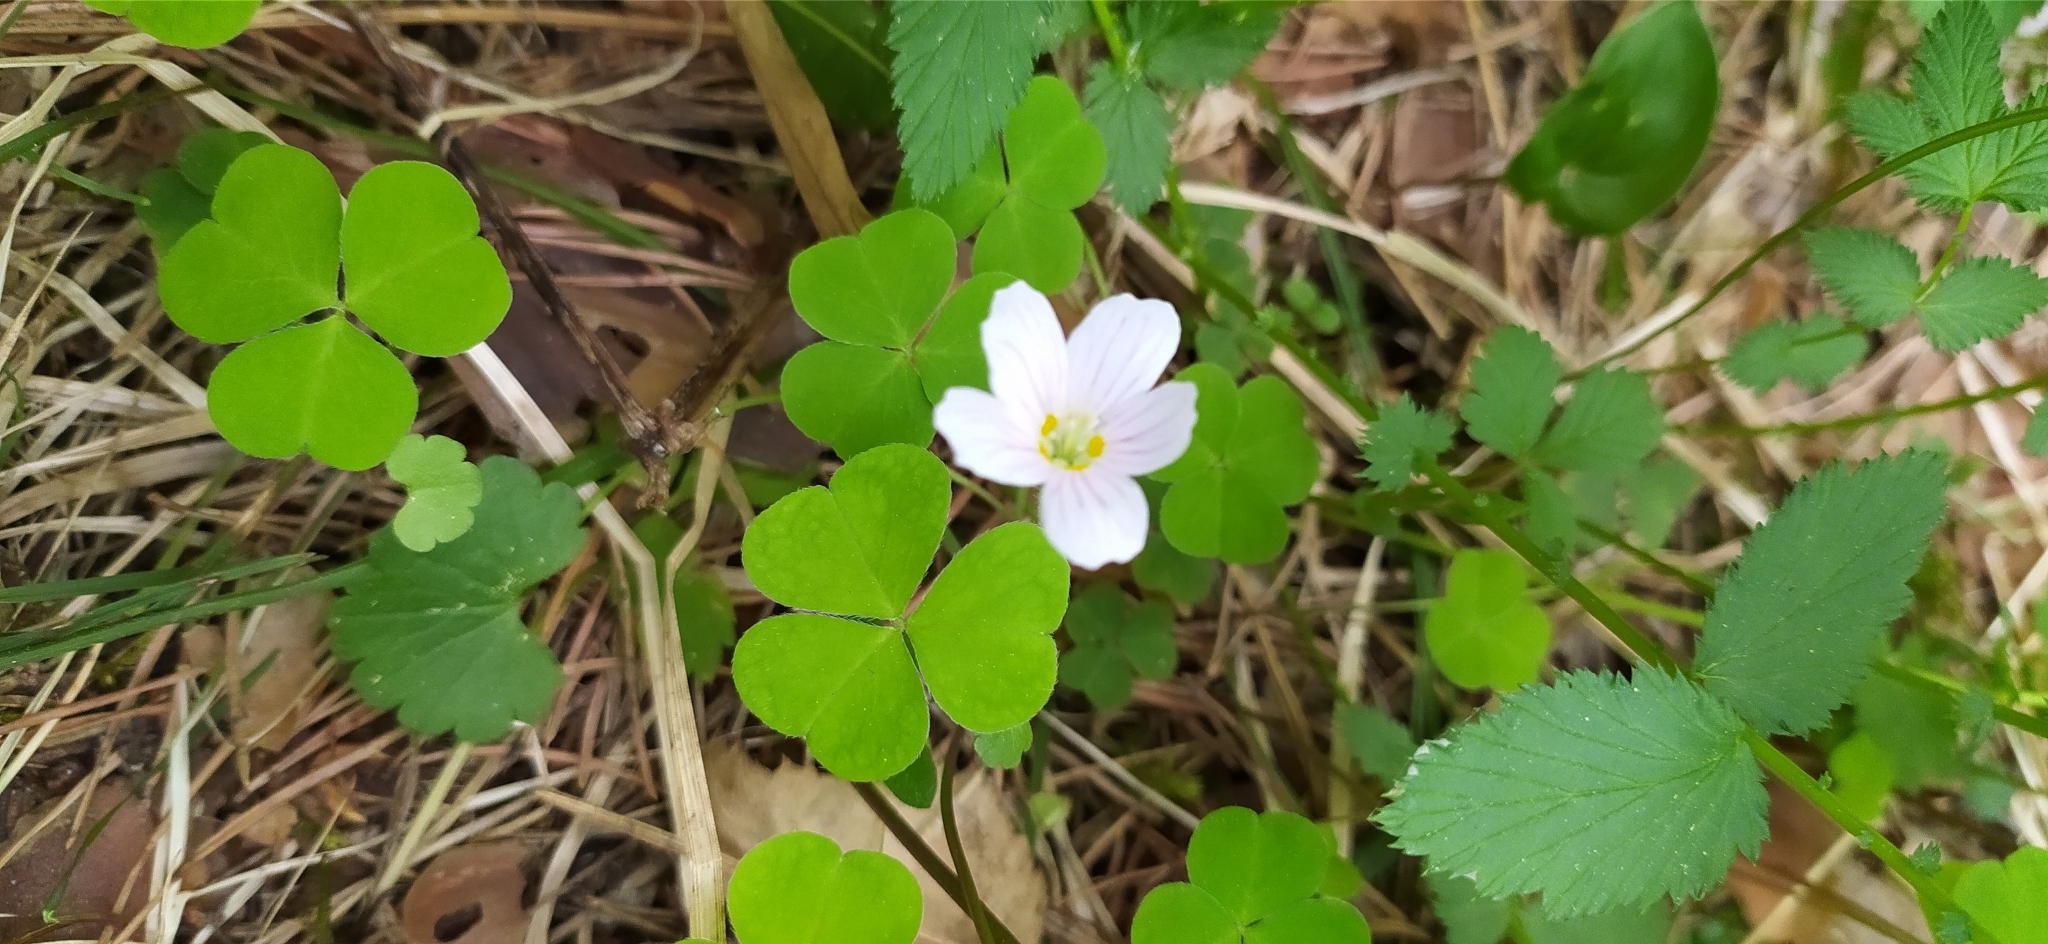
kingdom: Plantae
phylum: Tracheophyta
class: Magnoliopsida
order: Oxalidales
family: Oxalidaceae
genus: Oxalis
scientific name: Oxalis acetosella
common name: Wood-sorrel
